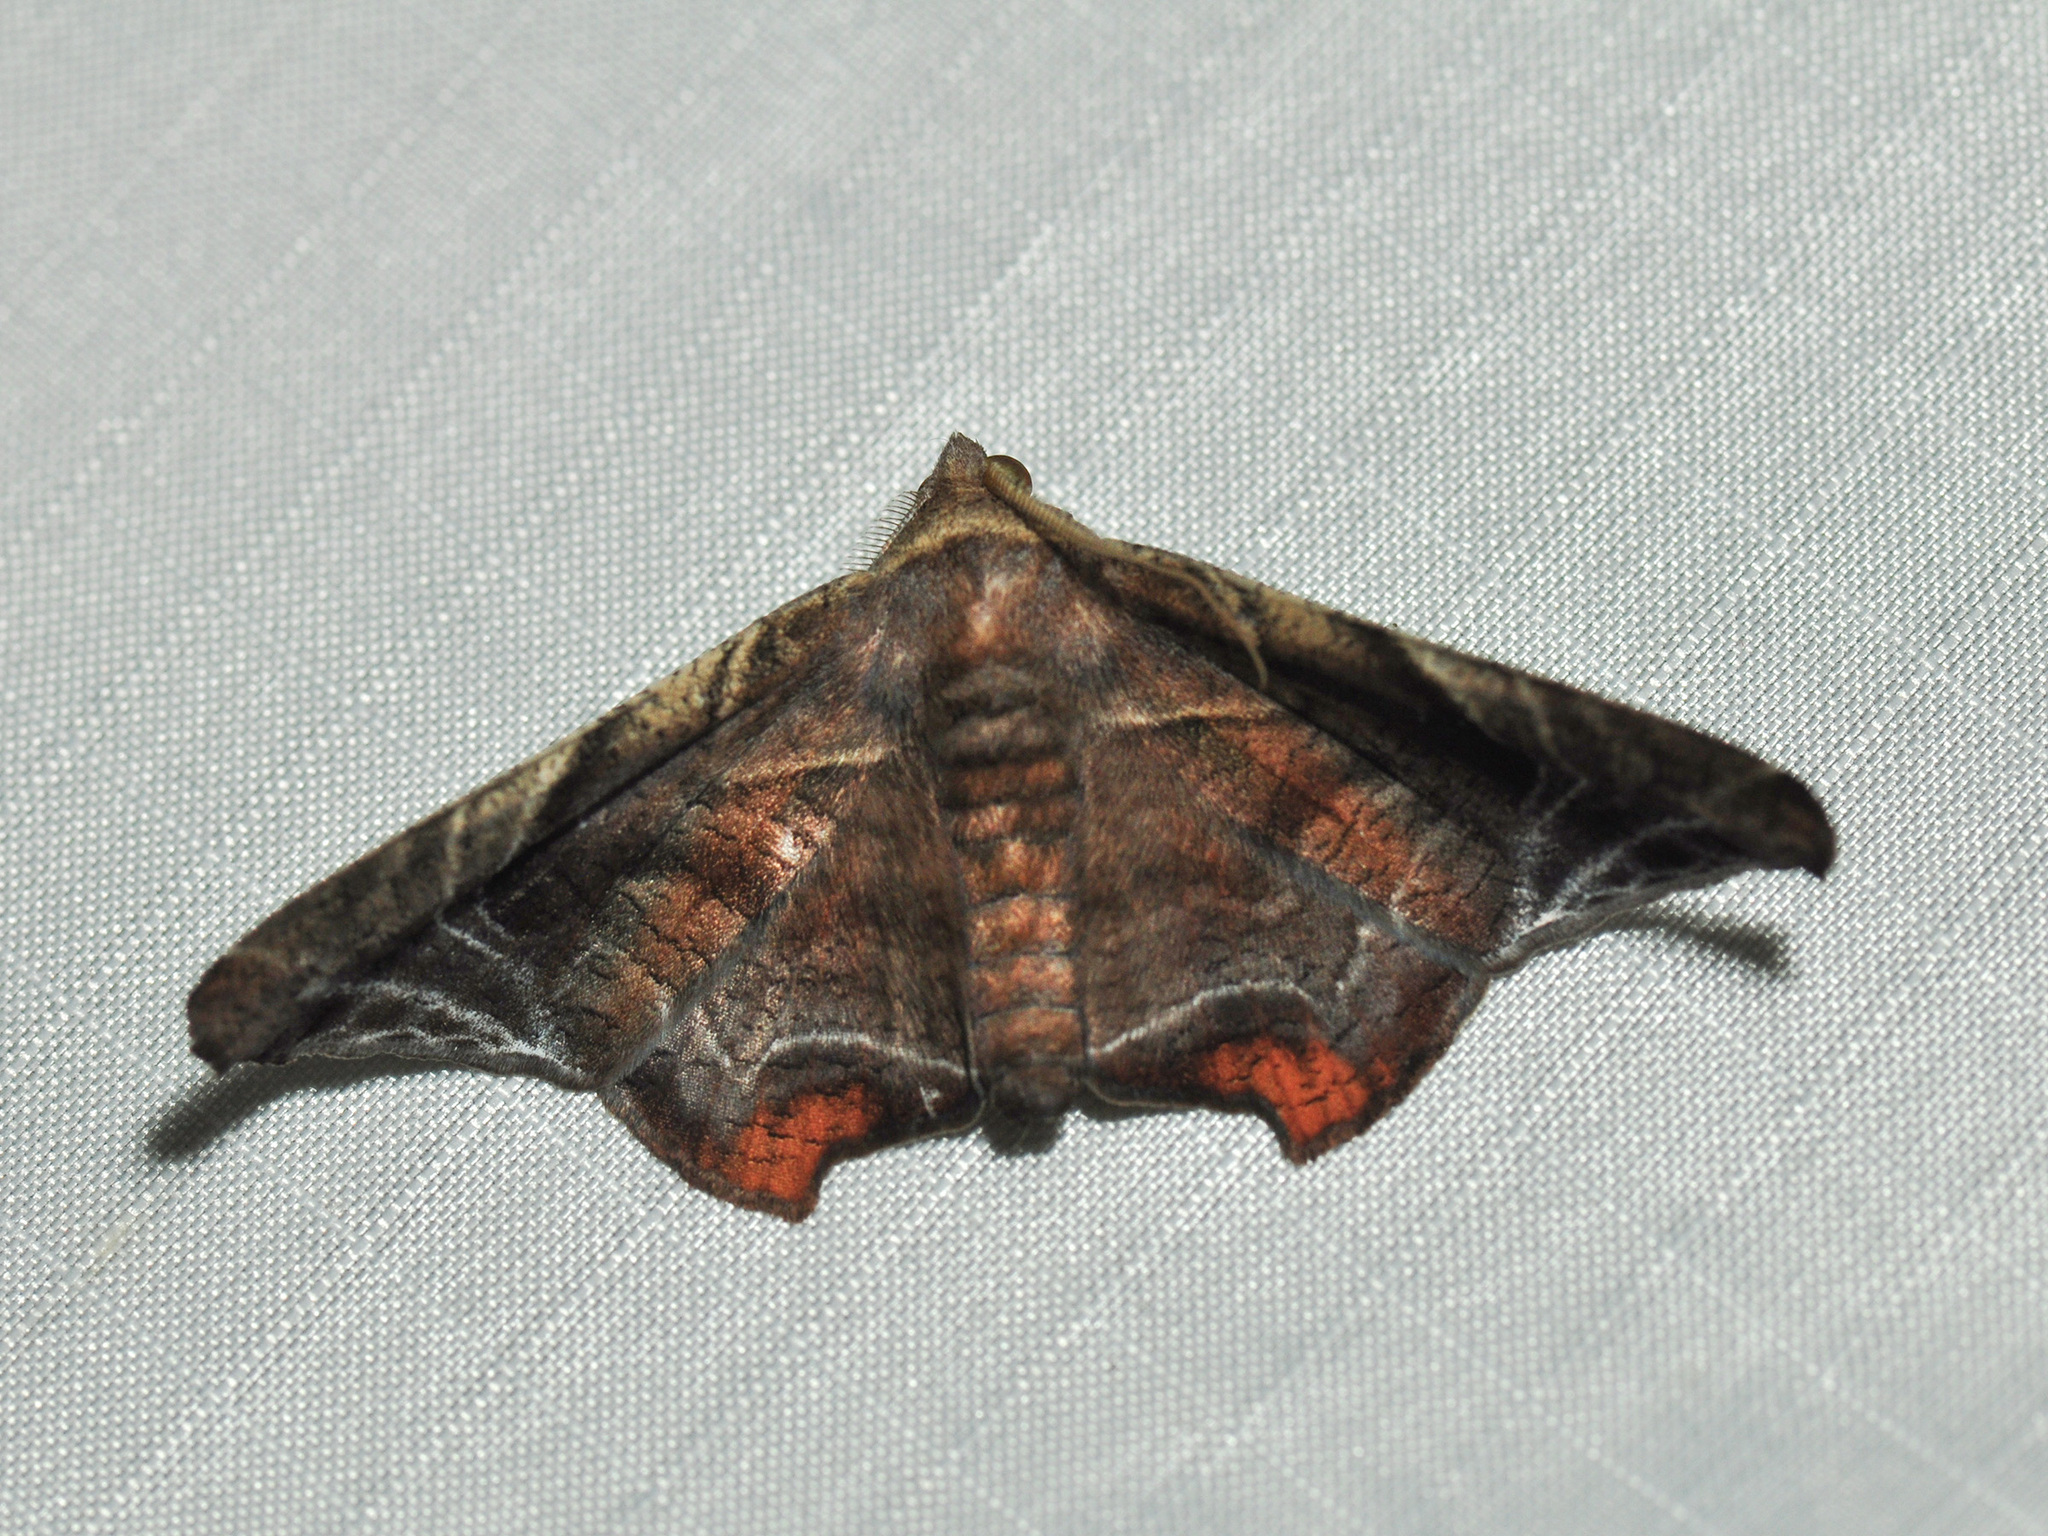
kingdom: Animalia
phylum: Arthropoda
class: Insecta
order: Lepidoptera
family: Erebidae
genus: Episparis
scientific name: Episparis tortuosalis
